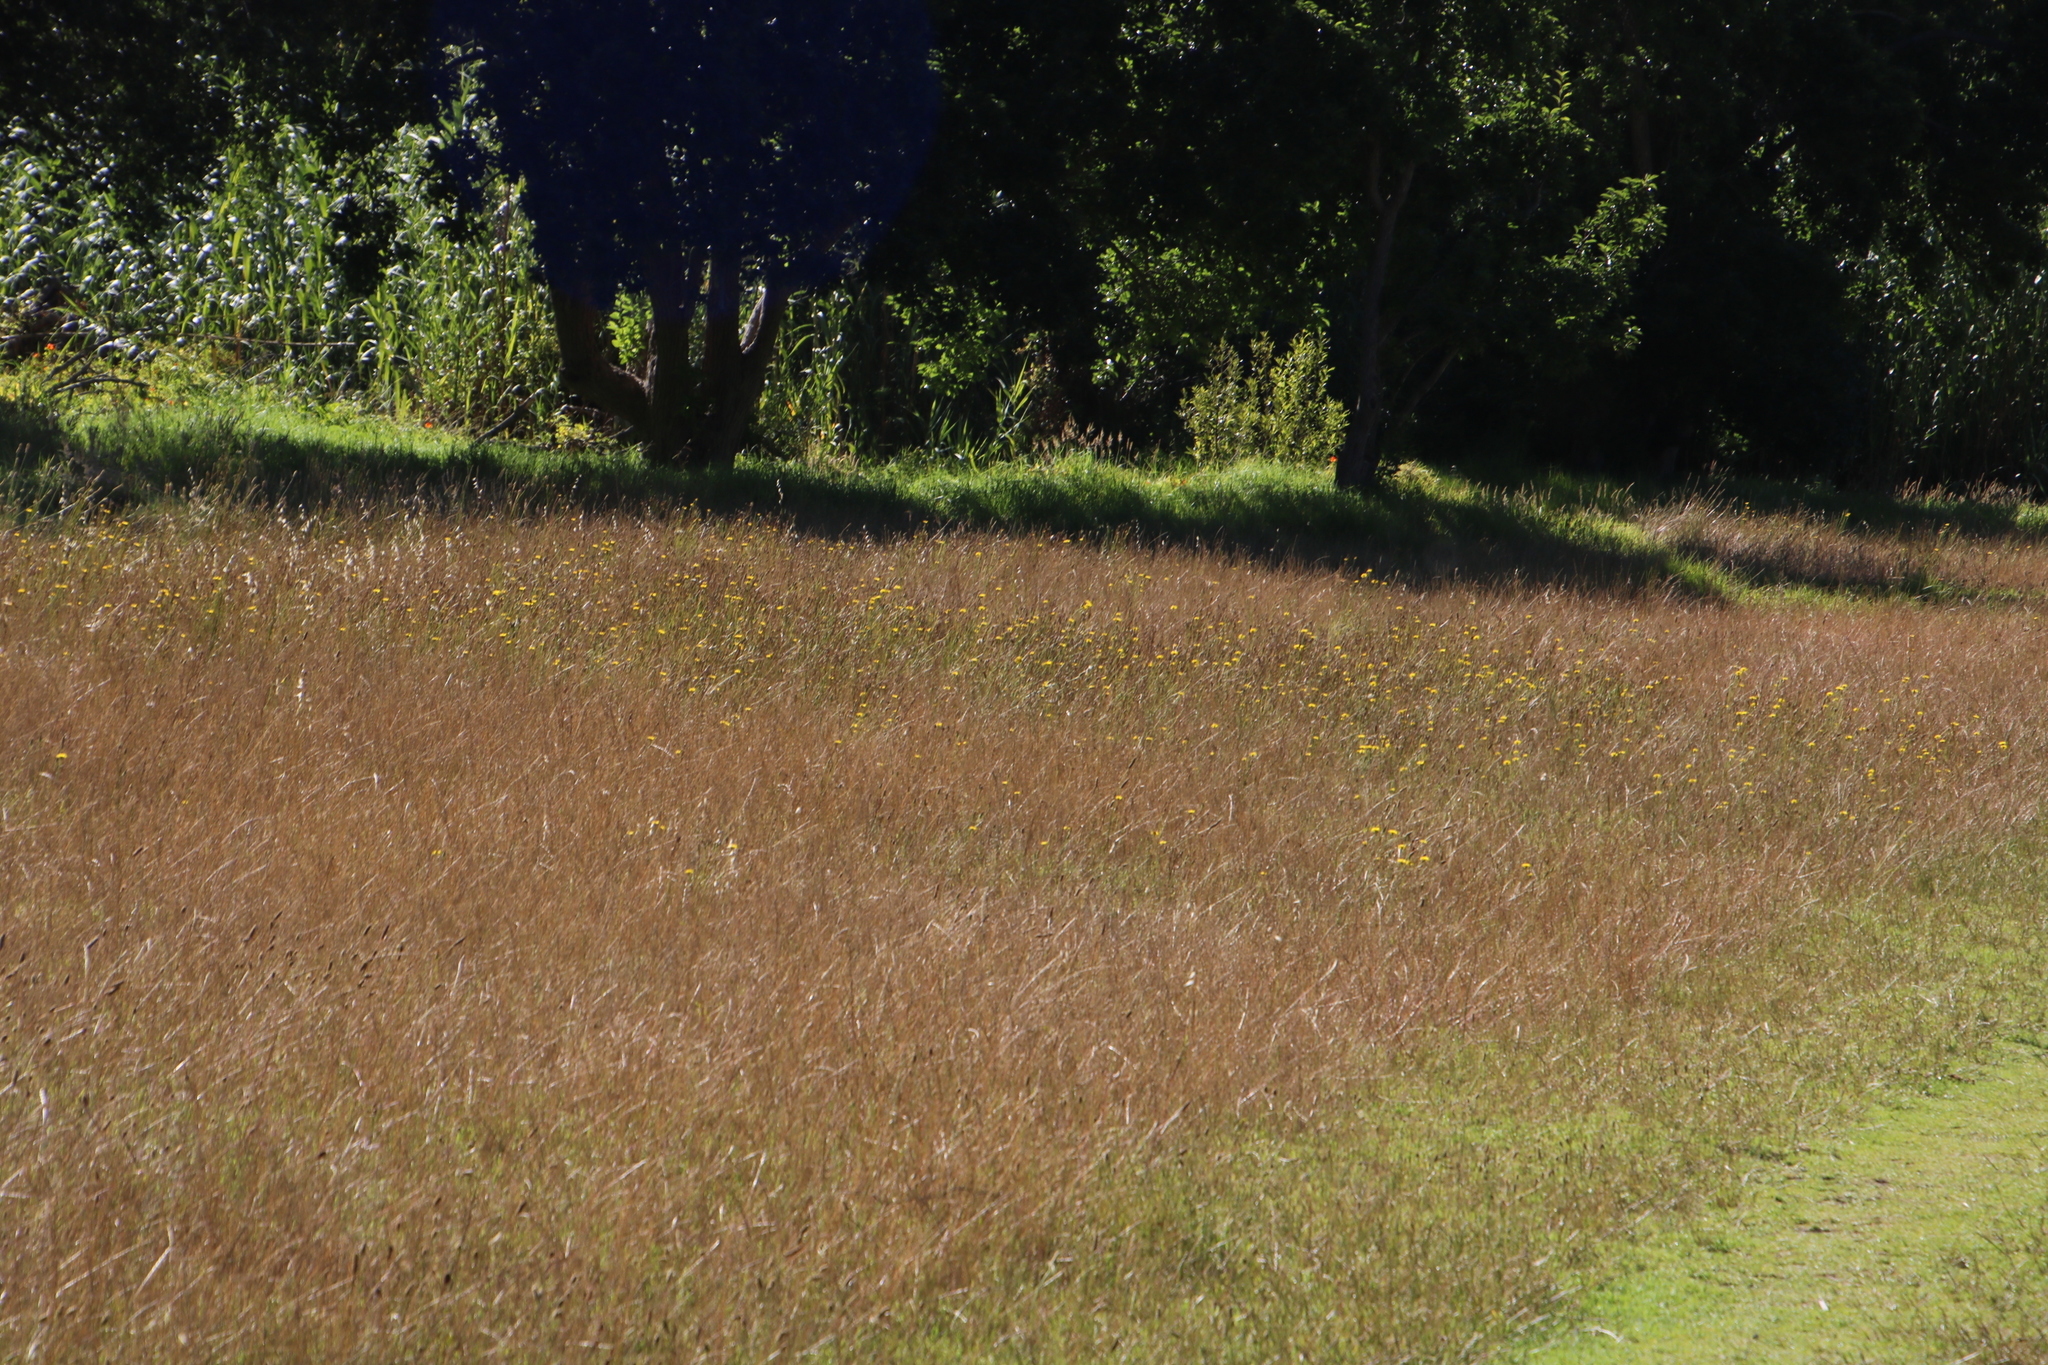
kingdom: Plantae
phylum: Tracheophyta
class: Magnoliopsida
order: Asterales
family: Asteraceae
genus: Hypochaeris
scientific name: Hypochaeris radicata
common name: Flatweed
